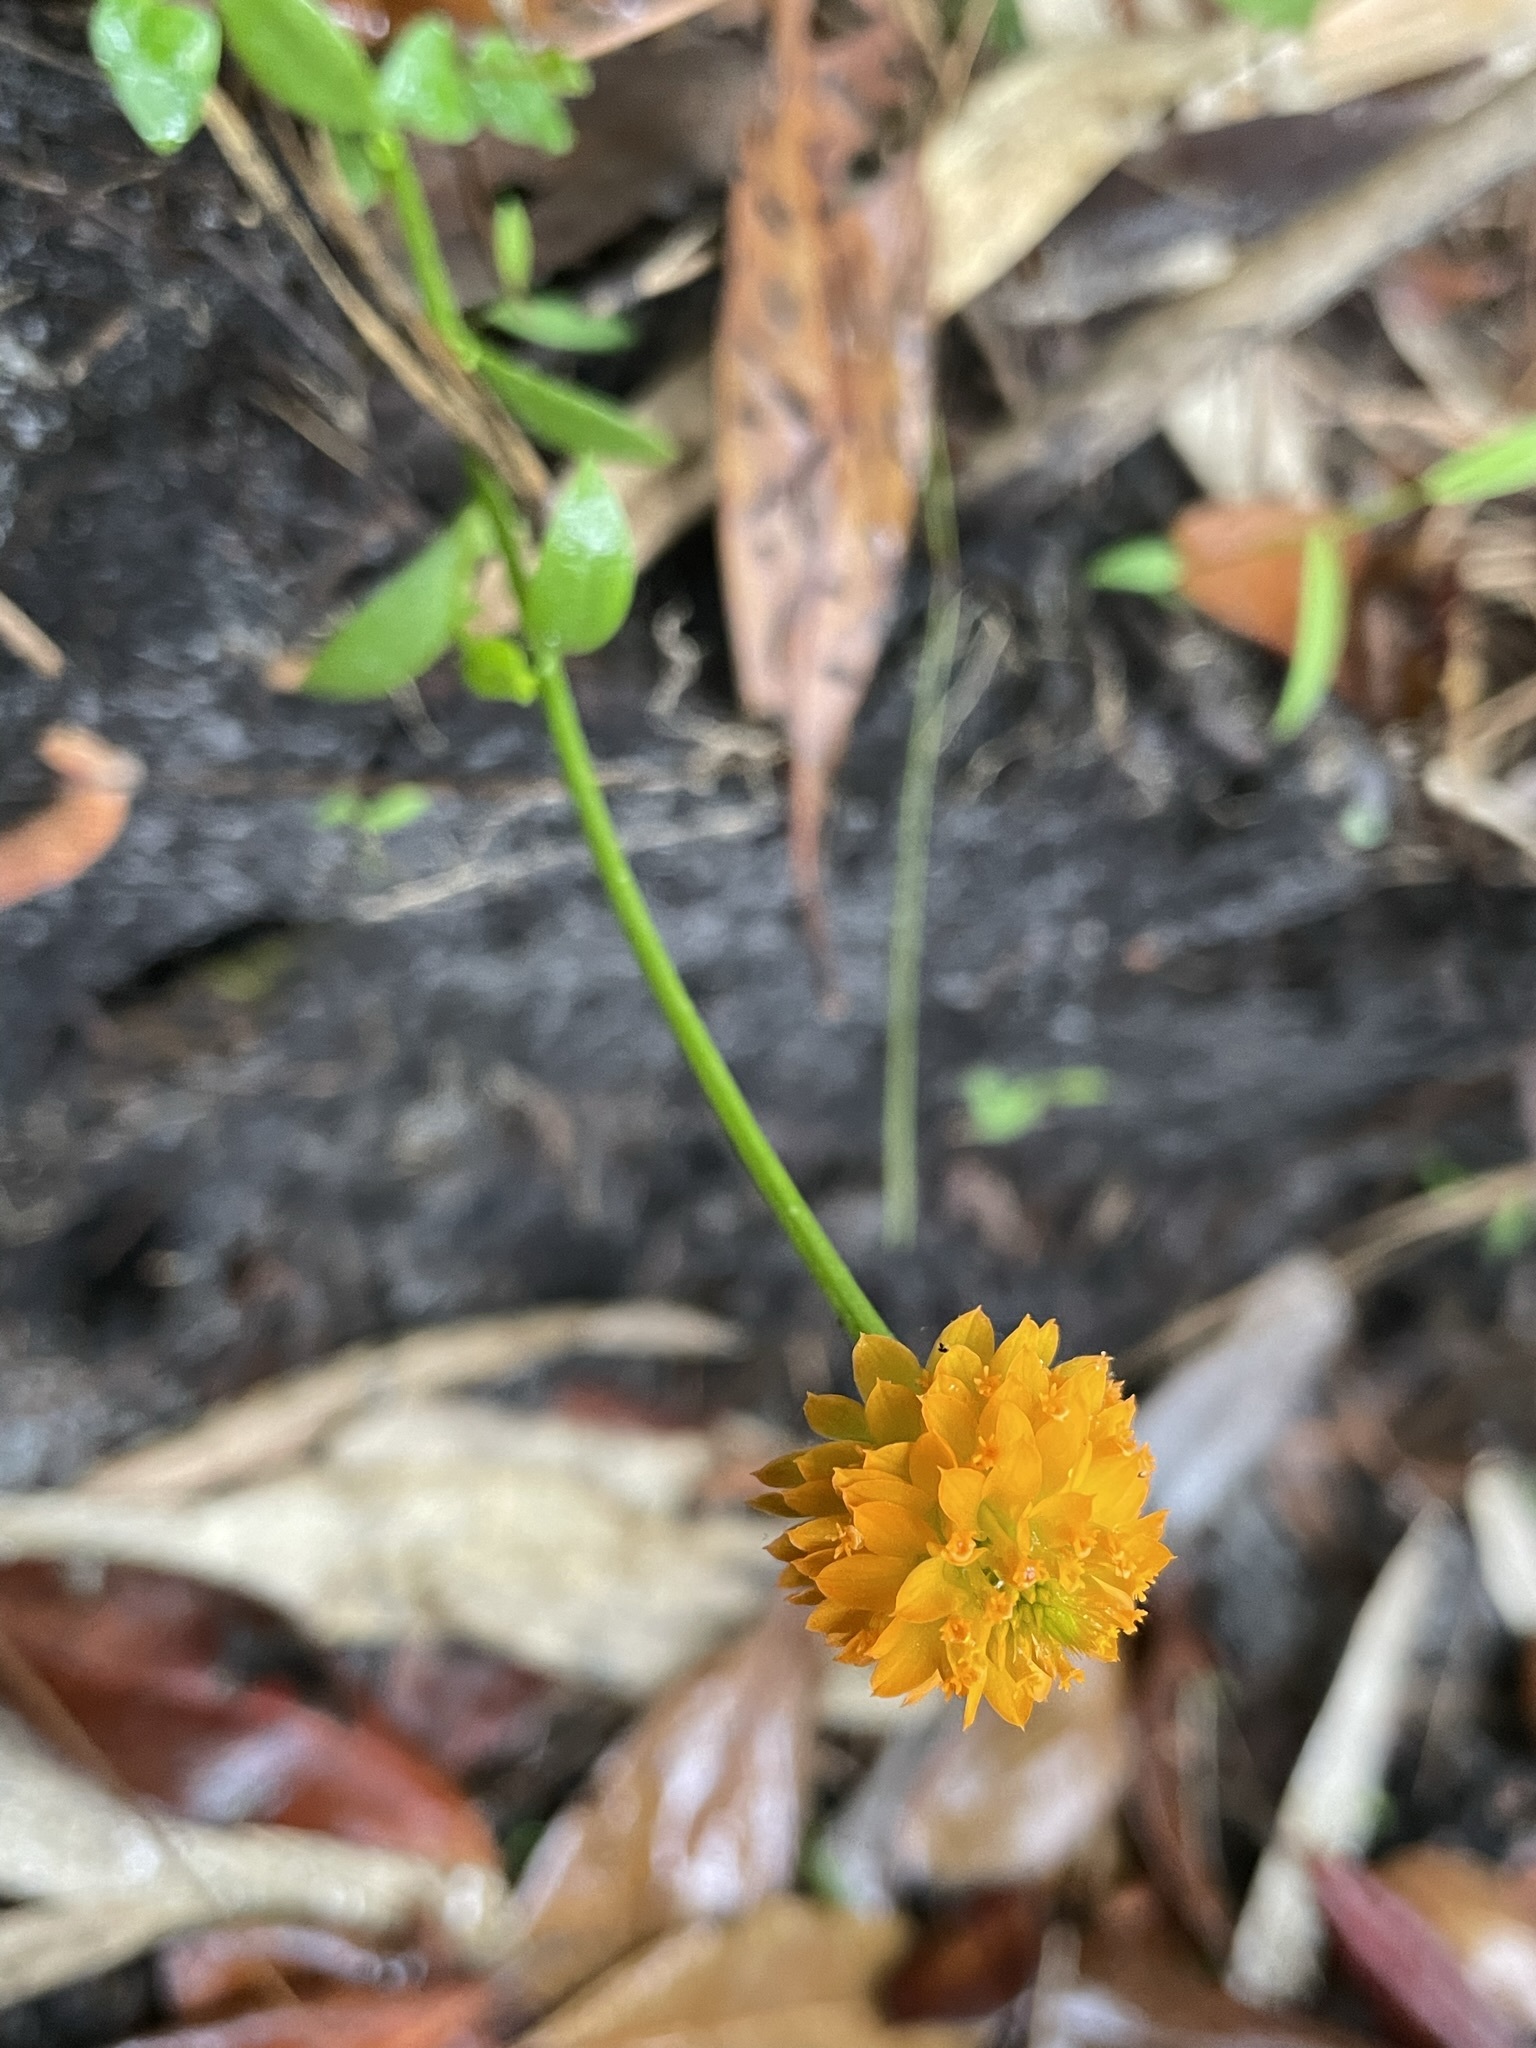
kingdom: Plantae
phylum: Tracheophyta
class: Magnoliopsida
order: Fabales
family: Polygalaceae
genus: Polygala
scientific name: Polygala lutea
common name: Orange milkwort
